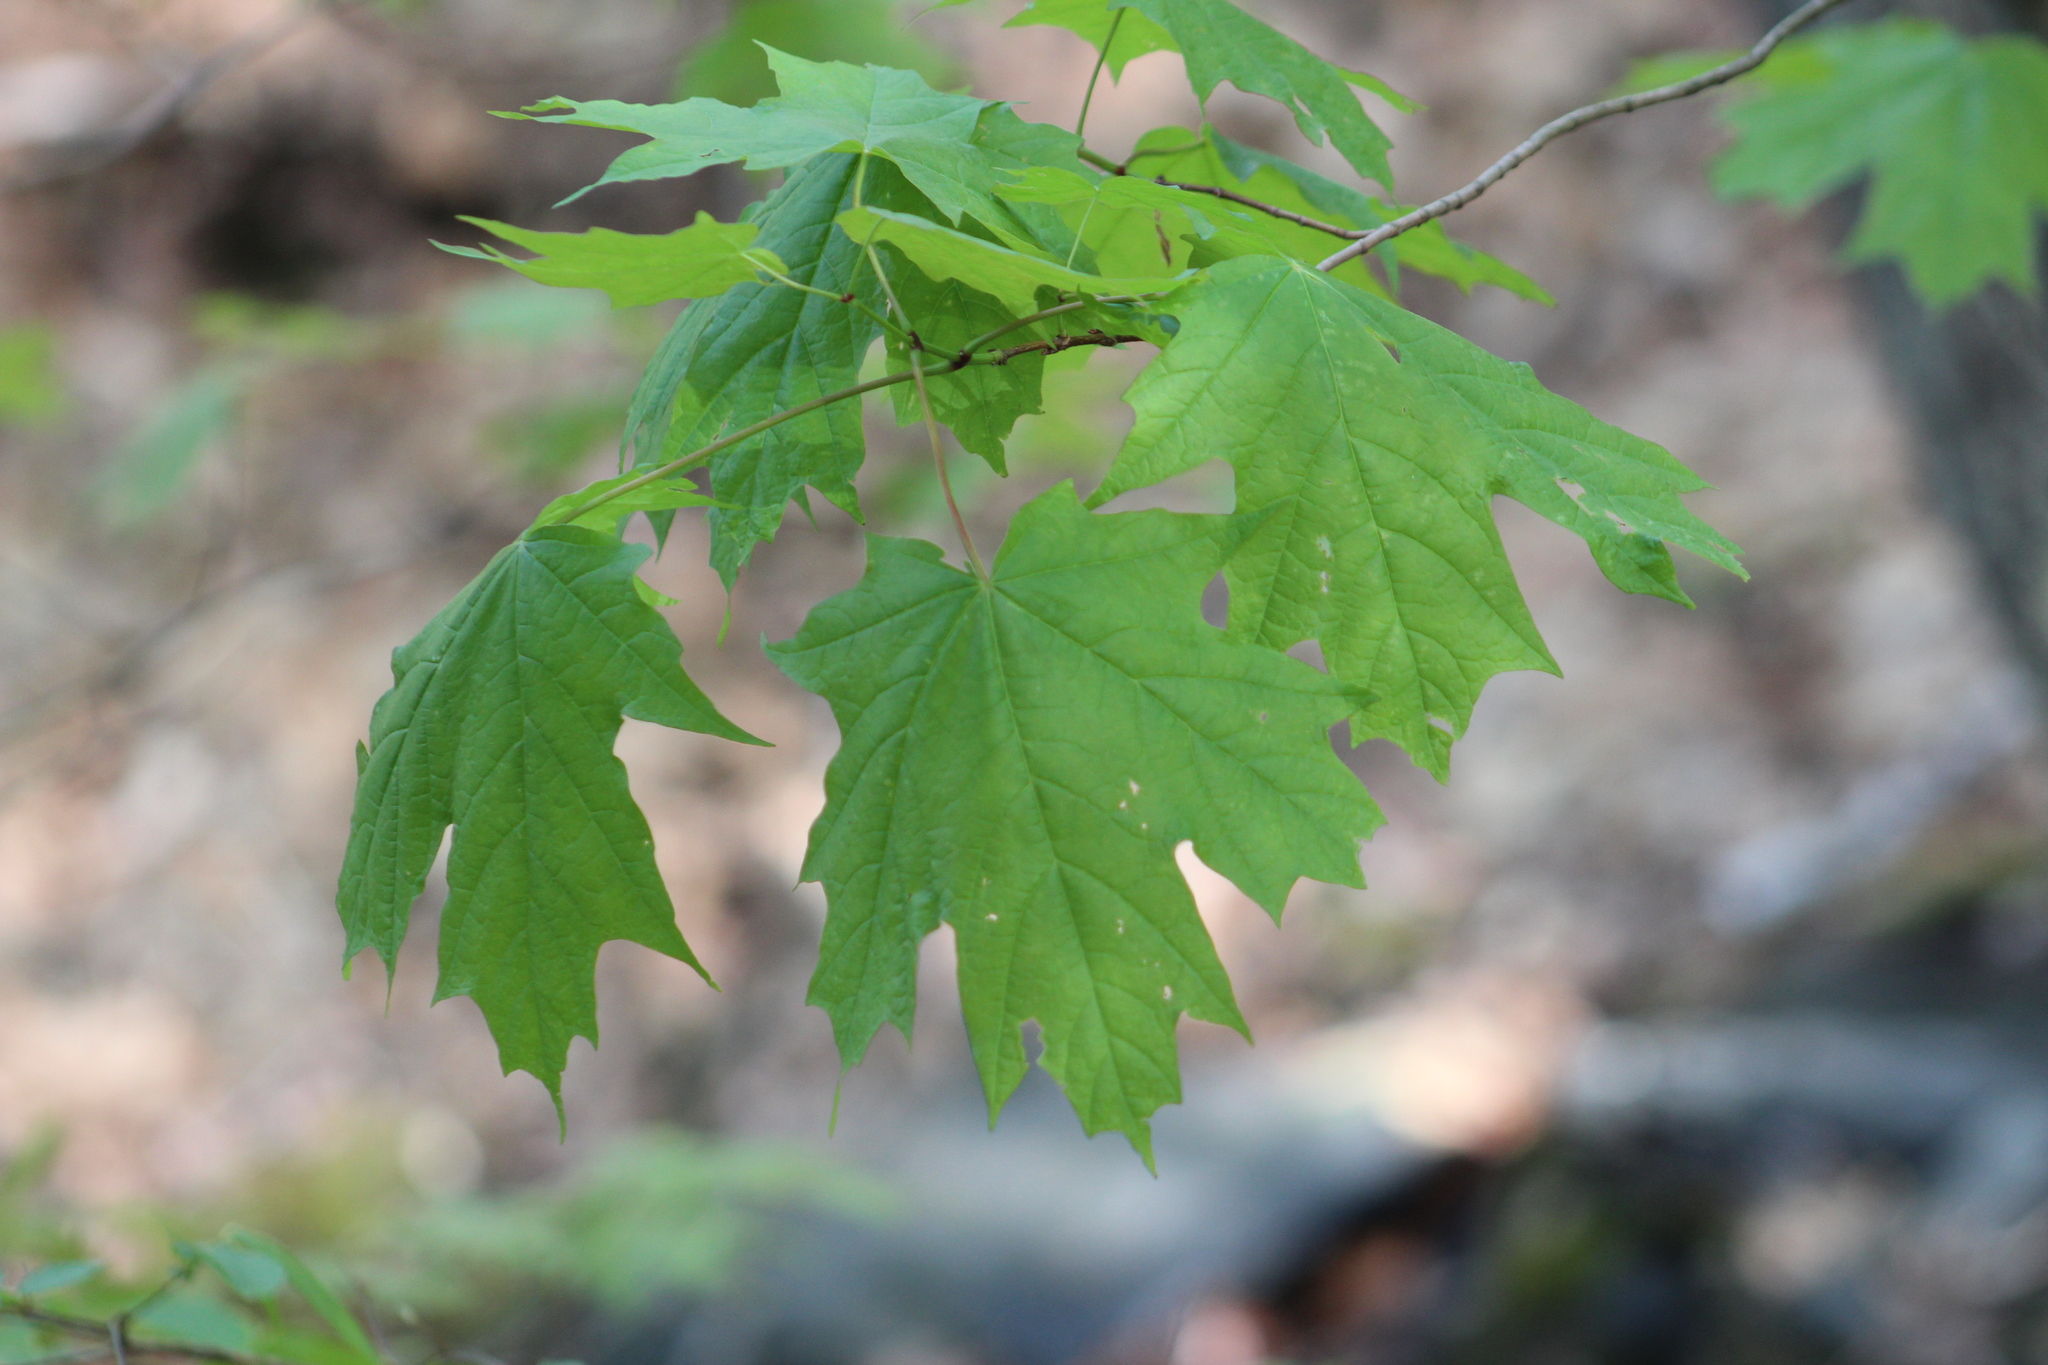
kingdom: Plantae
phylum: Tracheophyta
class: Magnoliopsida
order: Sapindales
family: Sapindaceae
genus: Acer
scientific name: Acer saccharum
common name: Sugar maple
